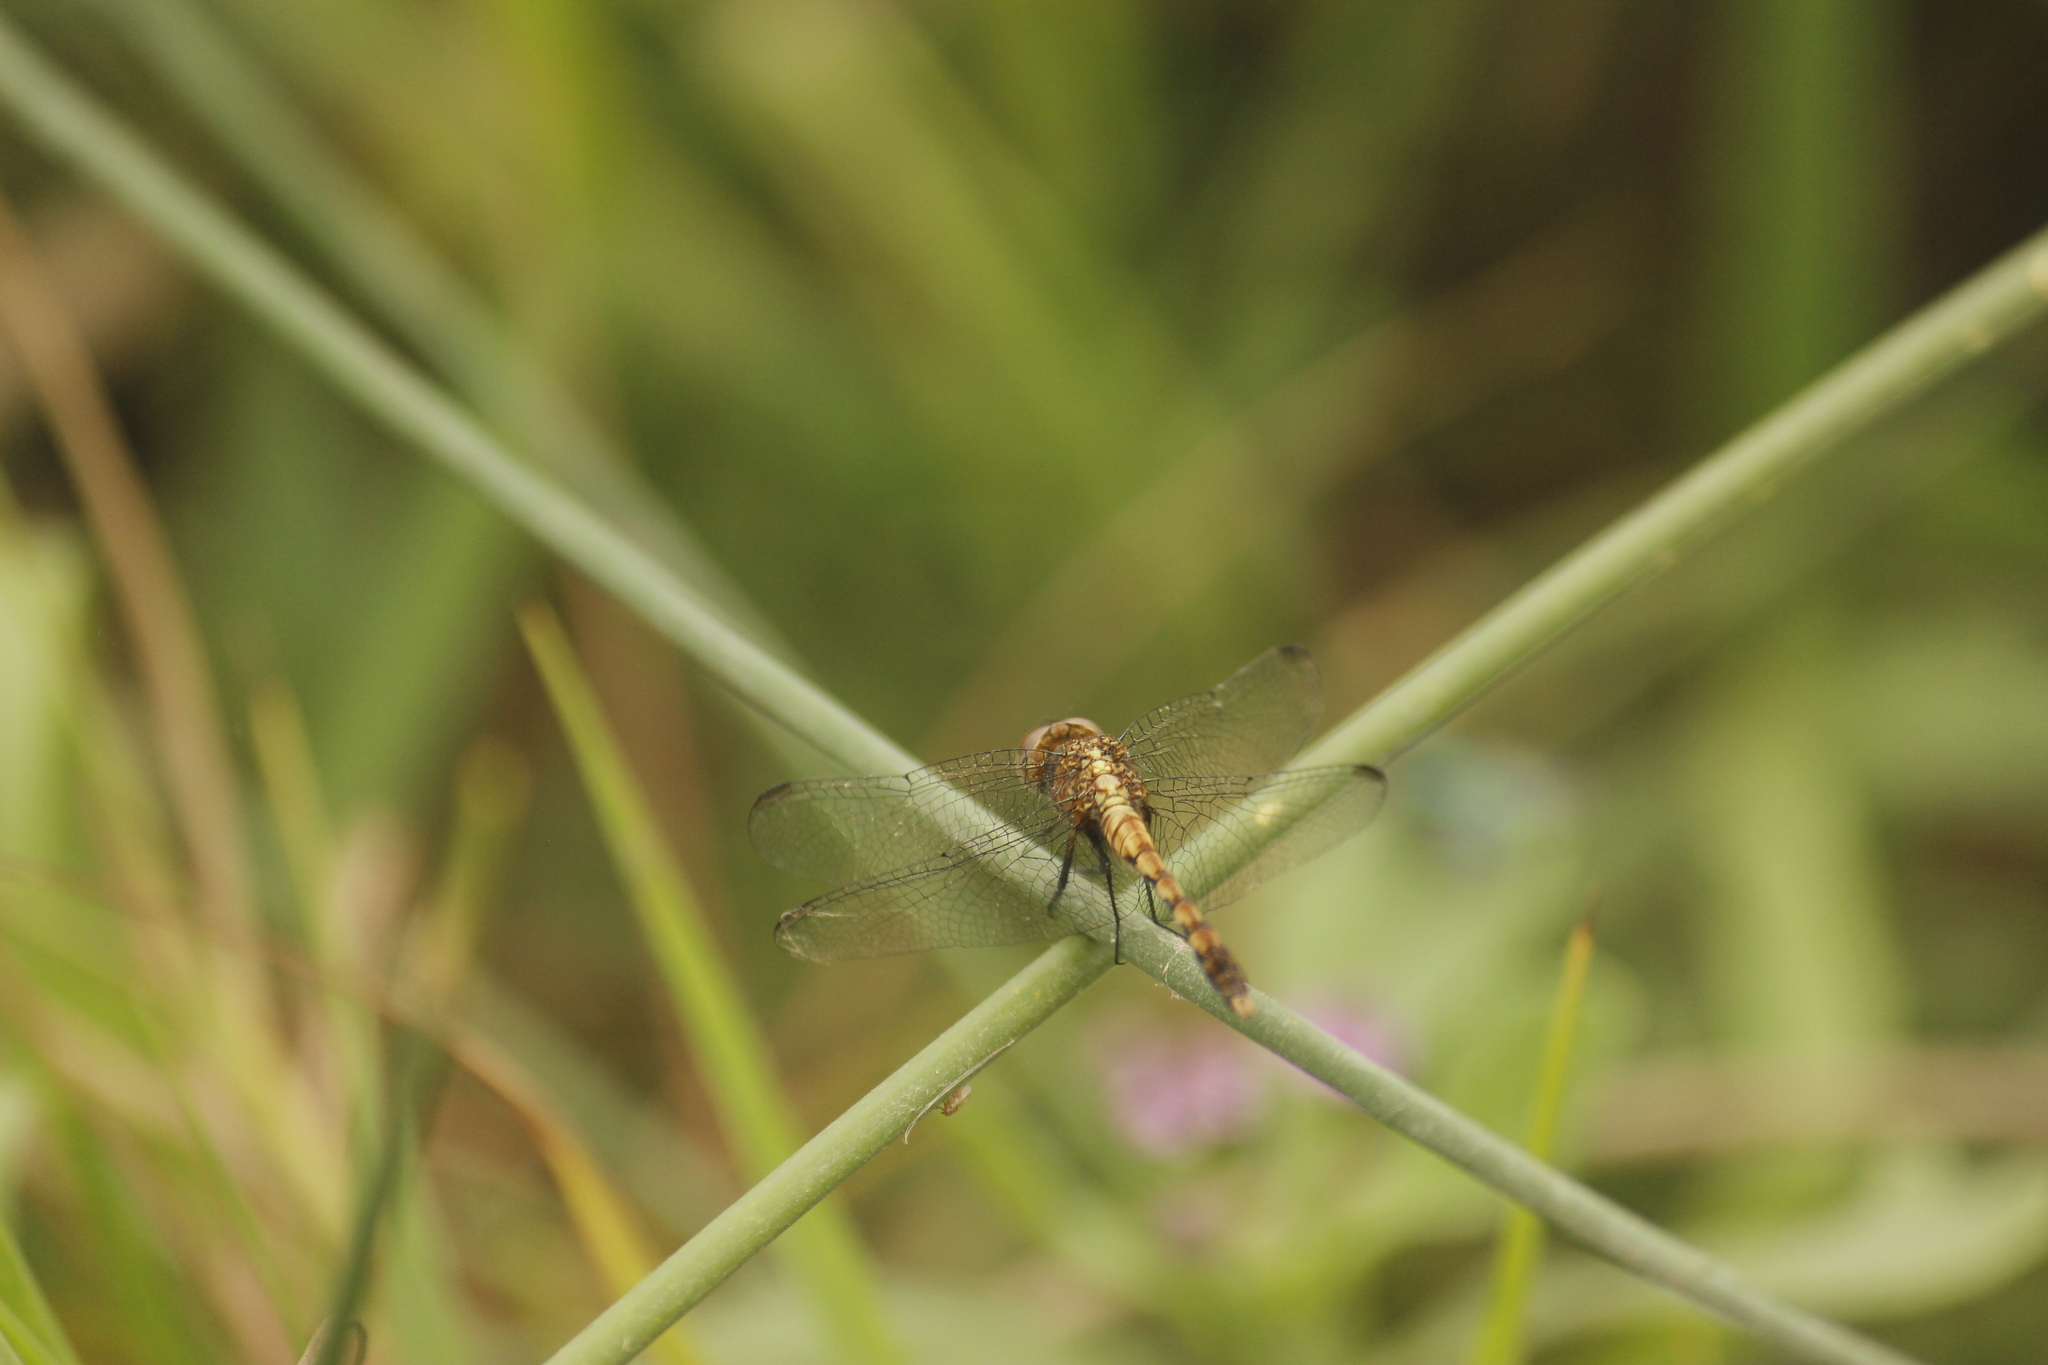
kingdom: Animalia
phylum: Arthropoda
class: Insecta
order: Odonata
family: Libellulidae
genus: Erythrodiplax
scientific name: Erythrodiplax cleopatra
